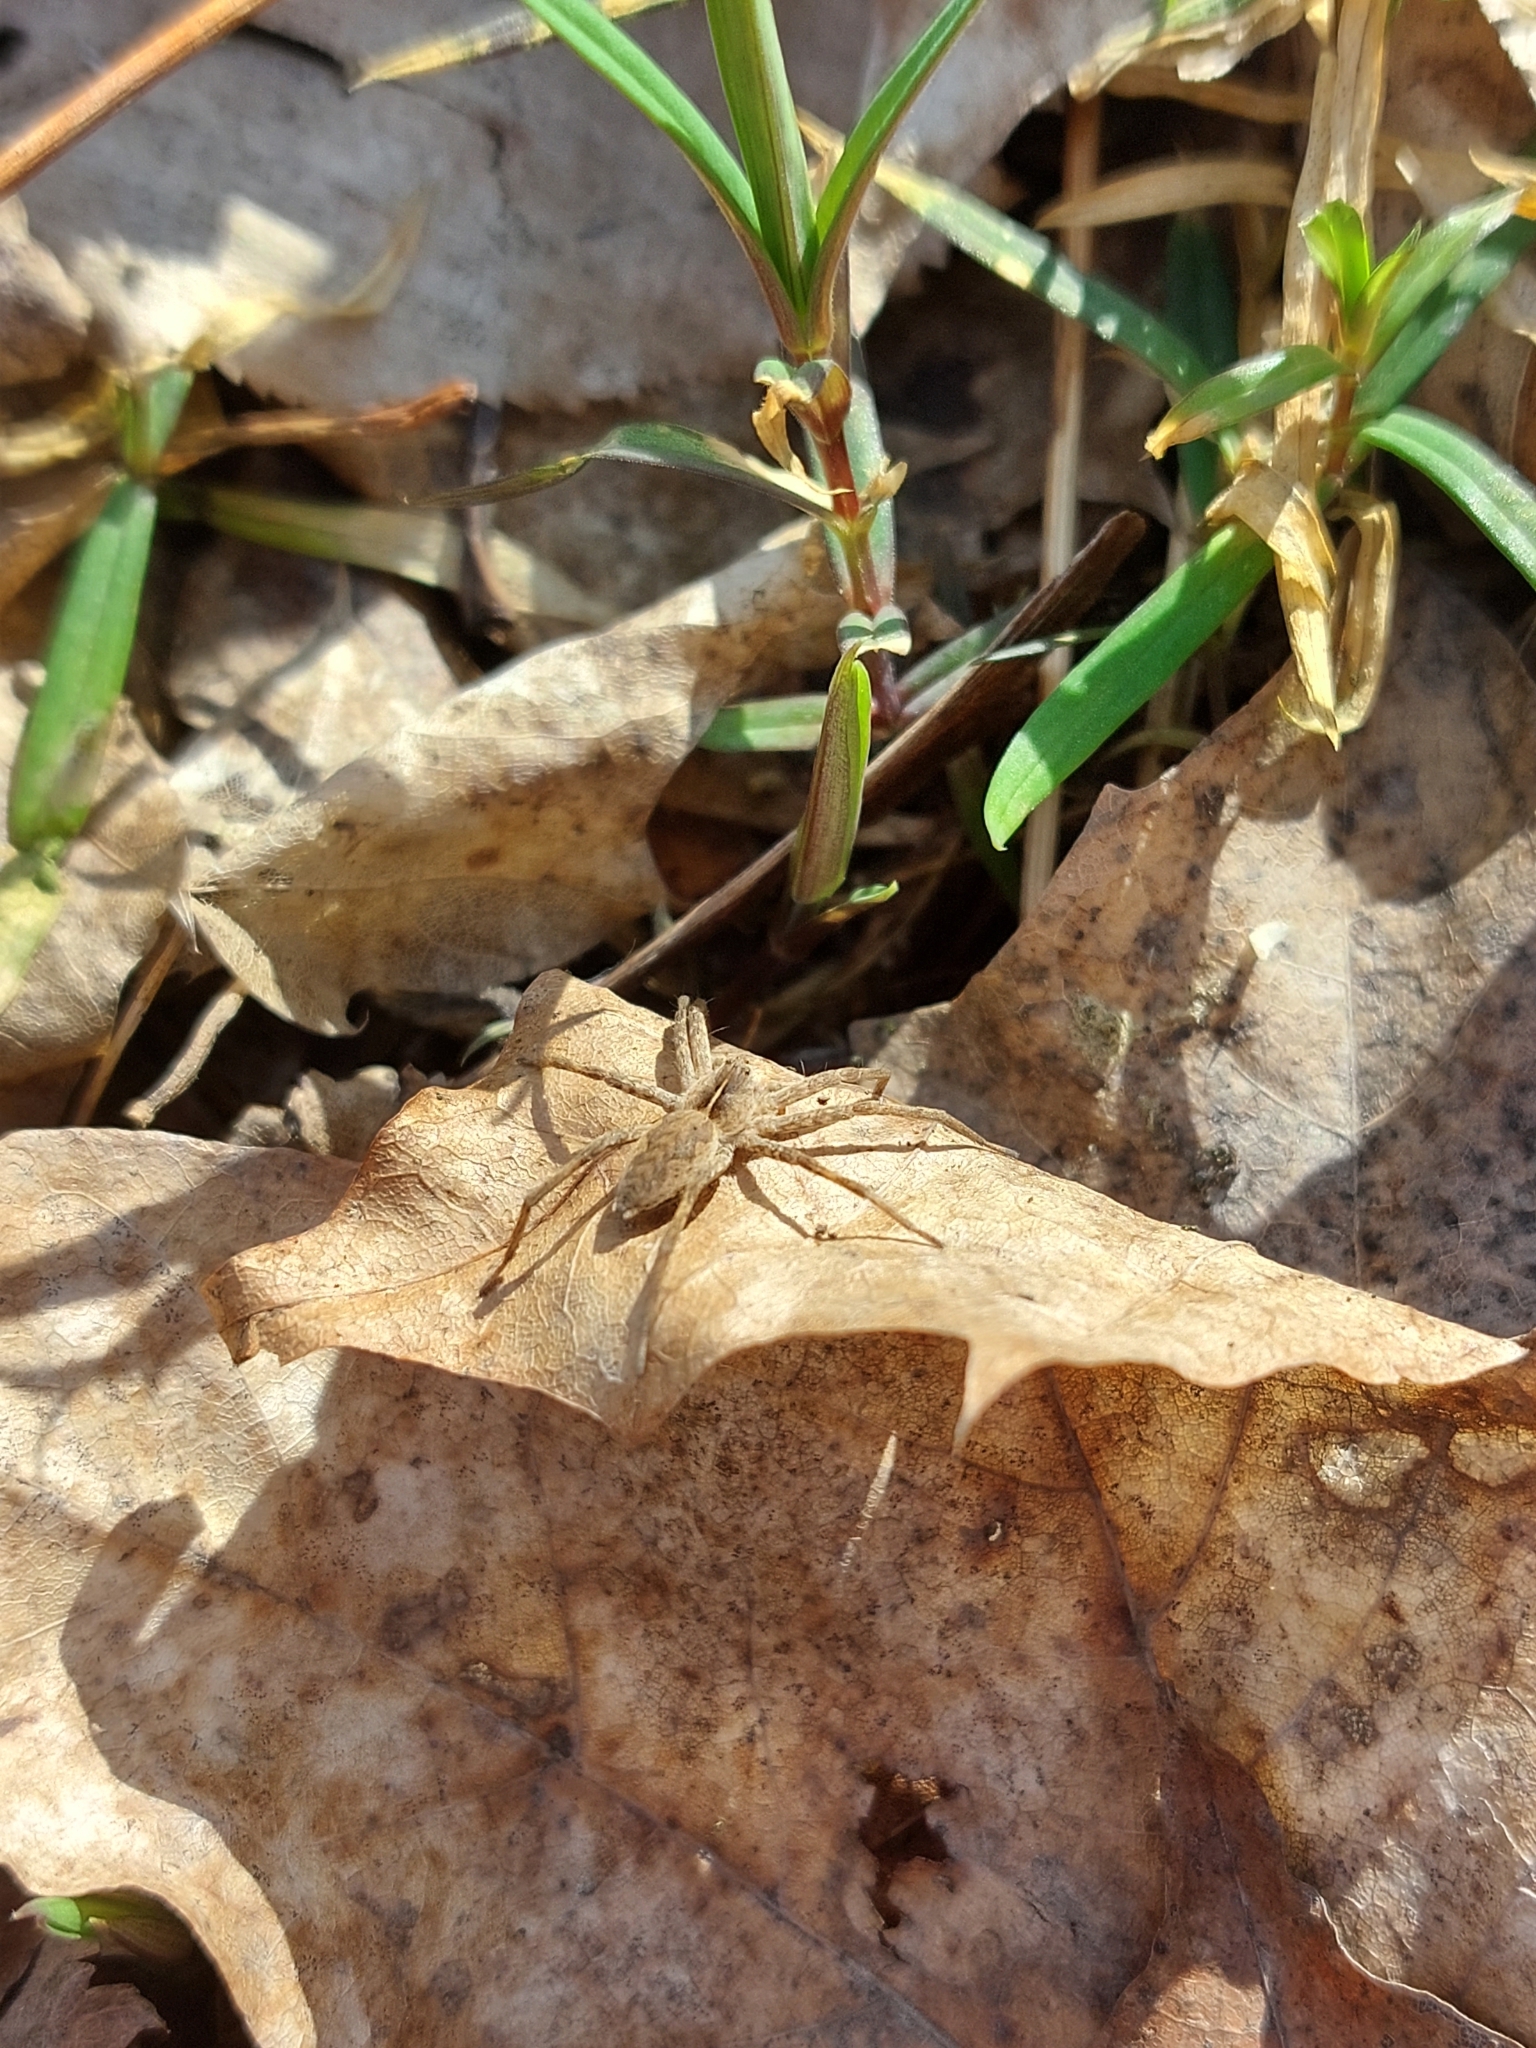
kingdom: Animalia
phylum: Arthropoda
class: Arachnida
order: Araneae
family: Pisauridae
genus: Pisaura
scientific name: Pisaura
